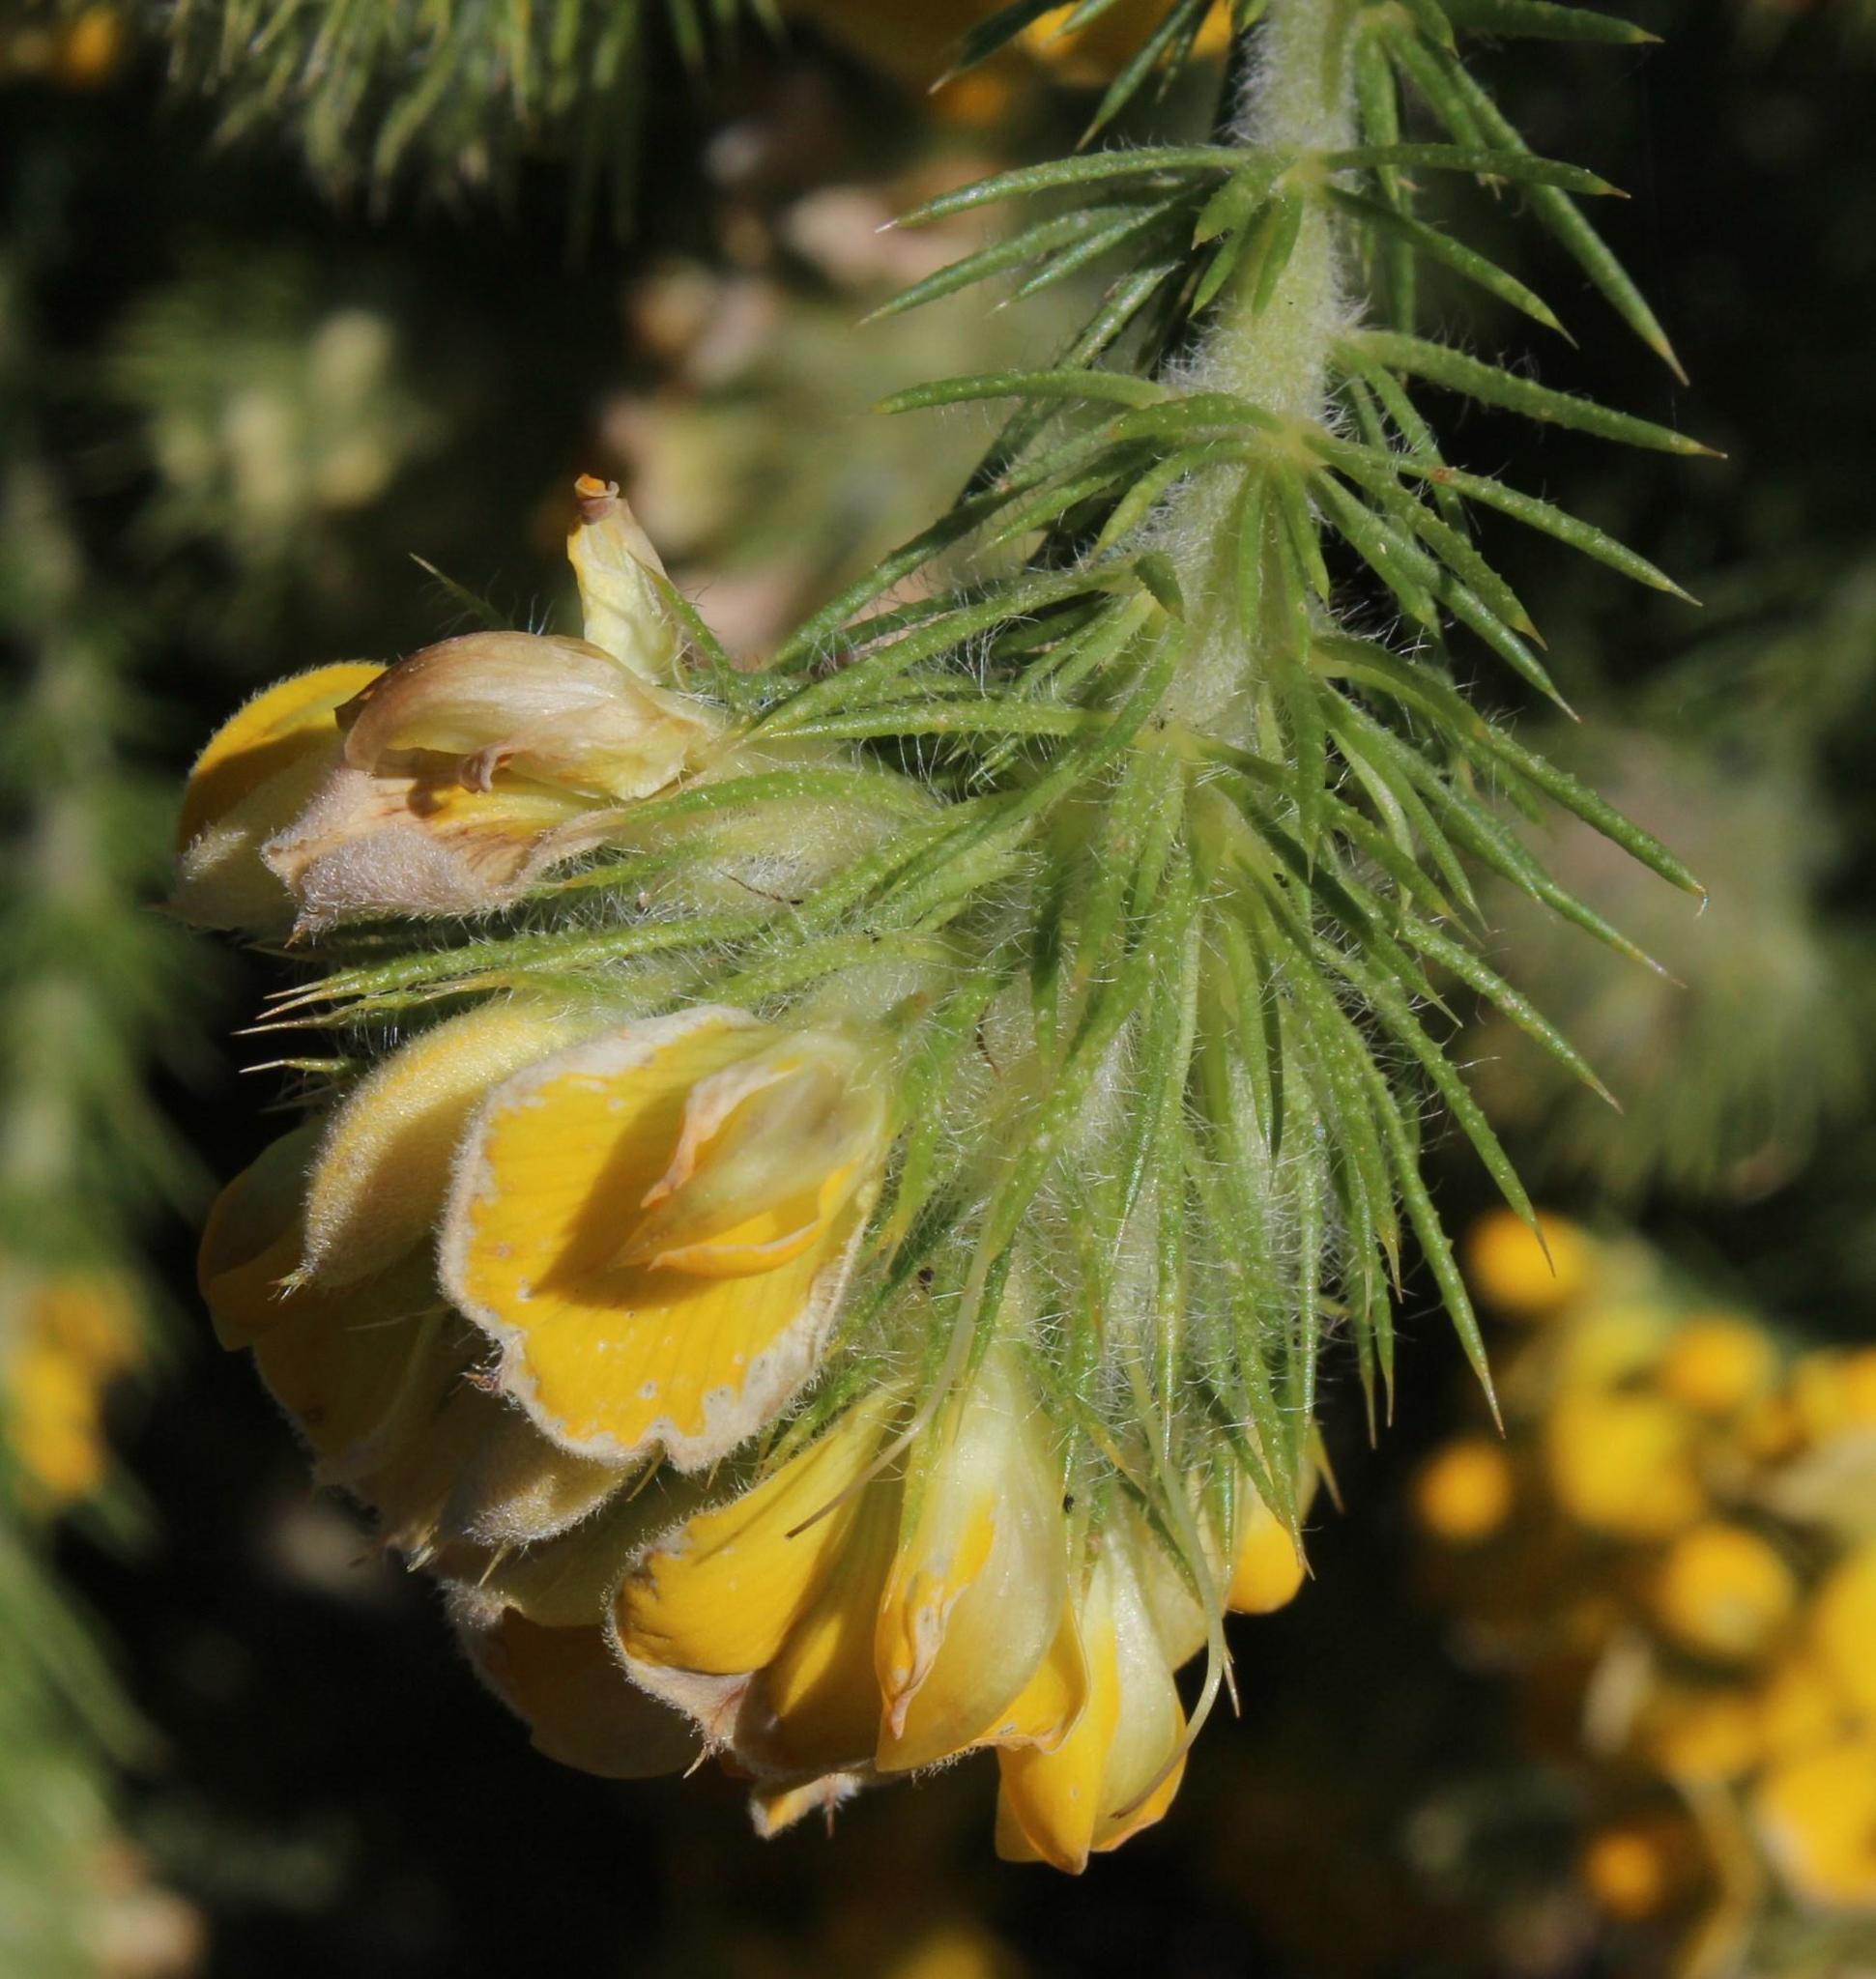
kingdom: Plantae
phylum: Tracheophyta
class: Magnoliopsida
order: Fabales
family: Fabaceae
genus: Aspalathus
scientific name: Aspalathus chenopoda
